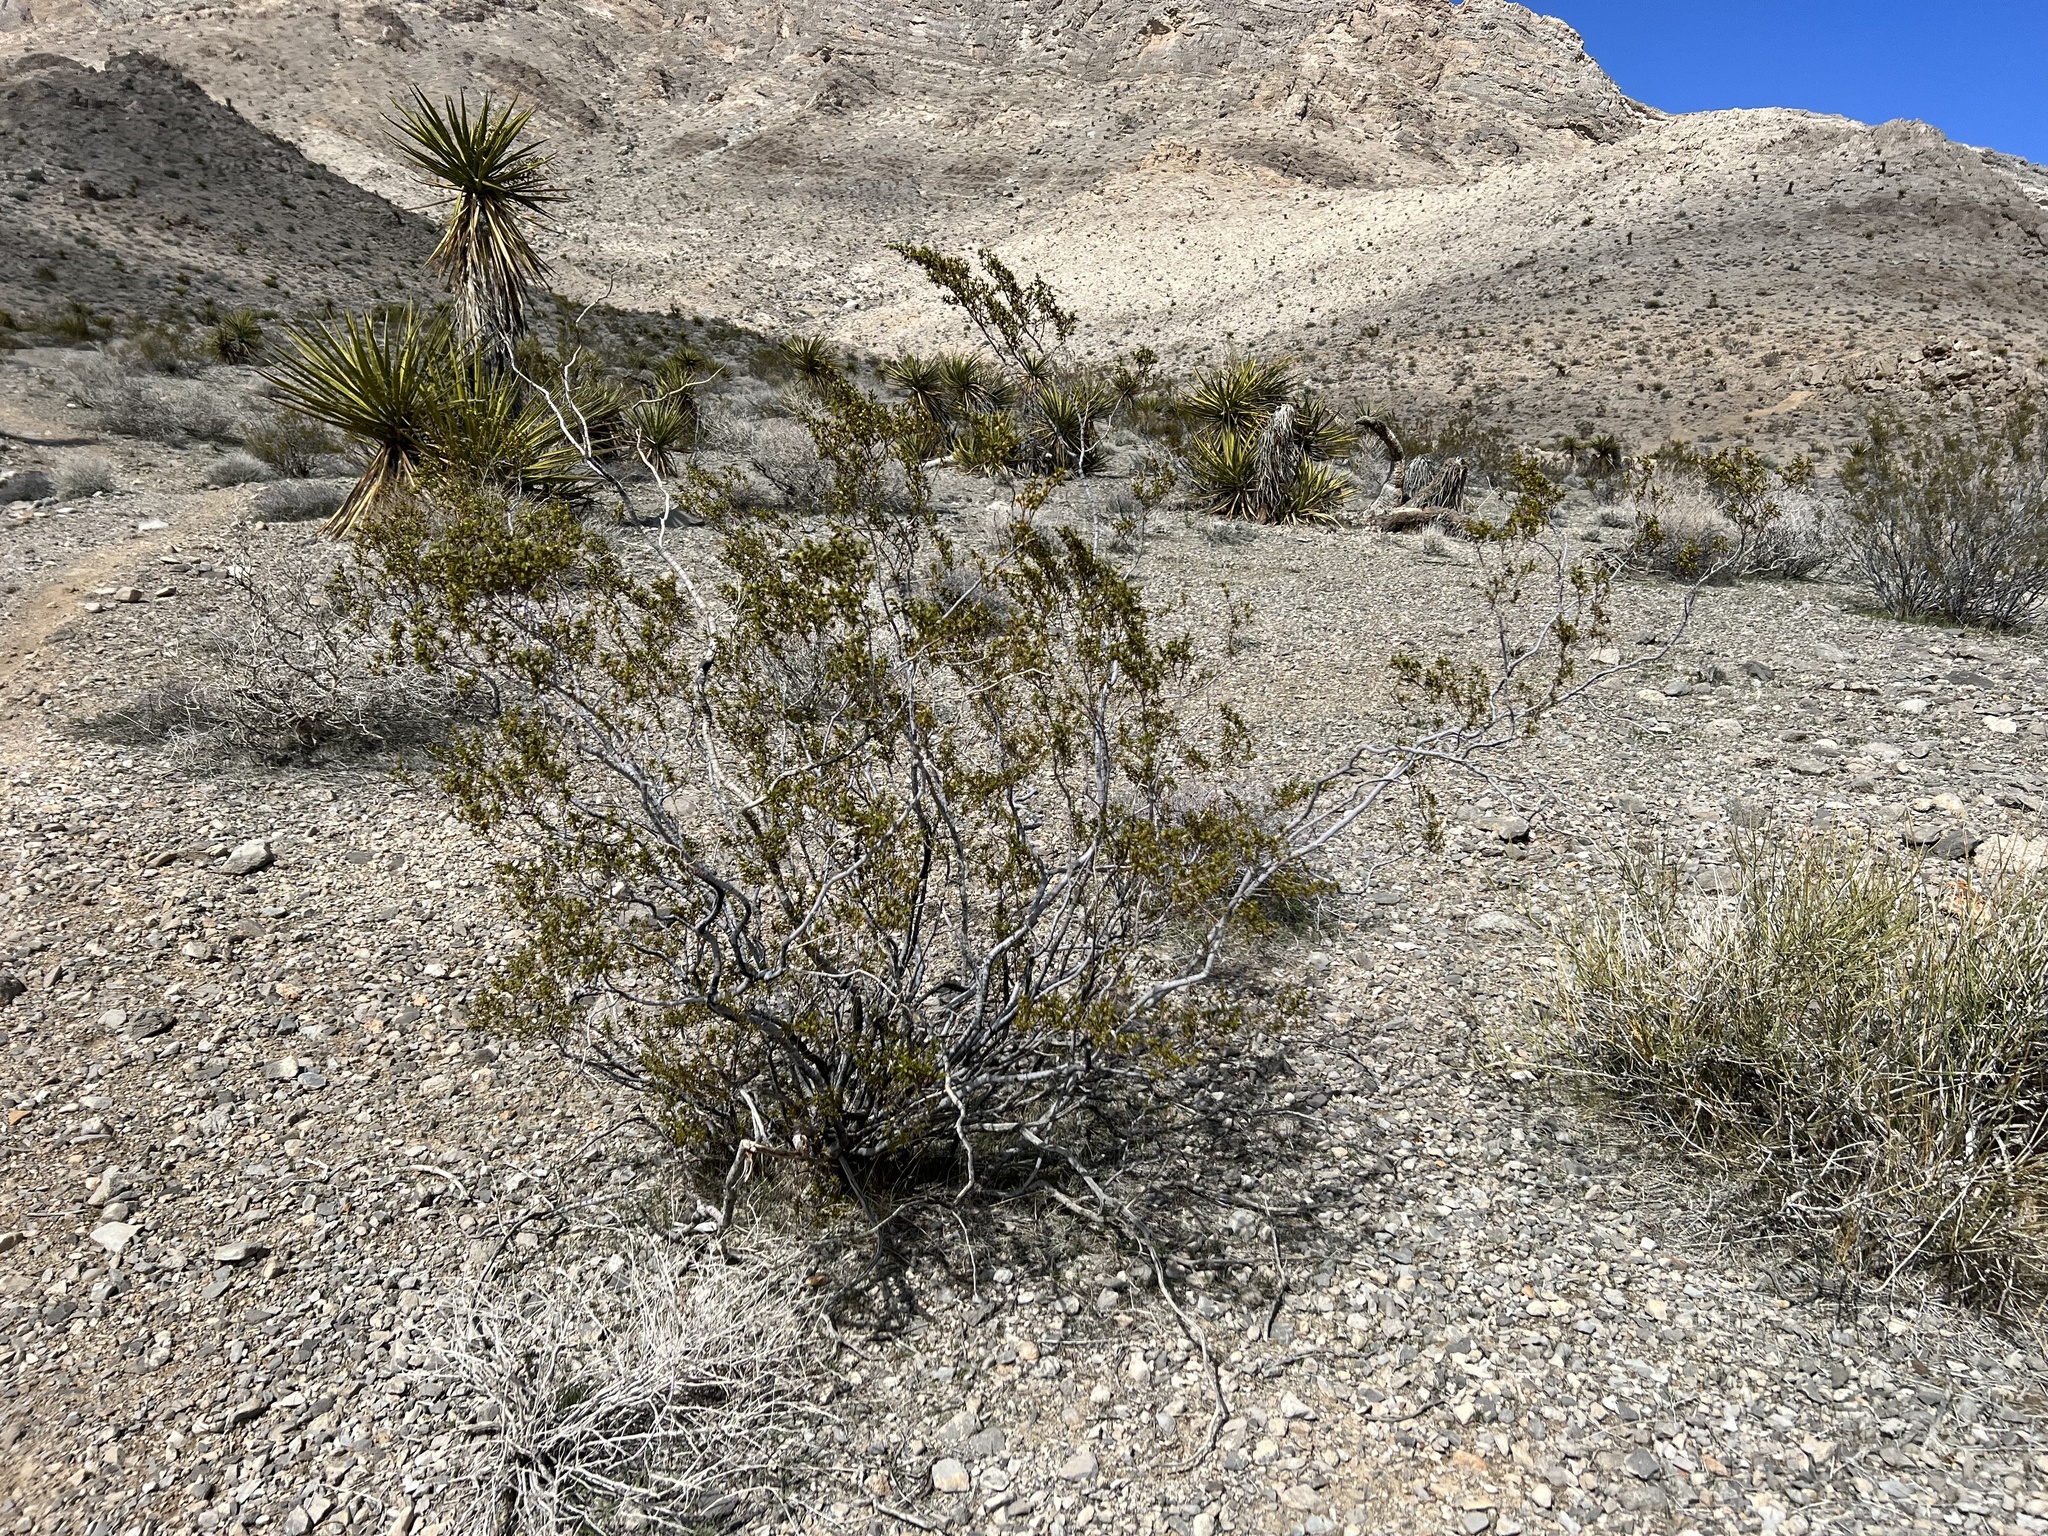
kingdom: Plantae
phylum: Tracheophyta
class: Magnoliopsida
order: Zygophyllales
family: Zygophyllaceae
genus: Larrea
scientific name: Larrea tridentata
